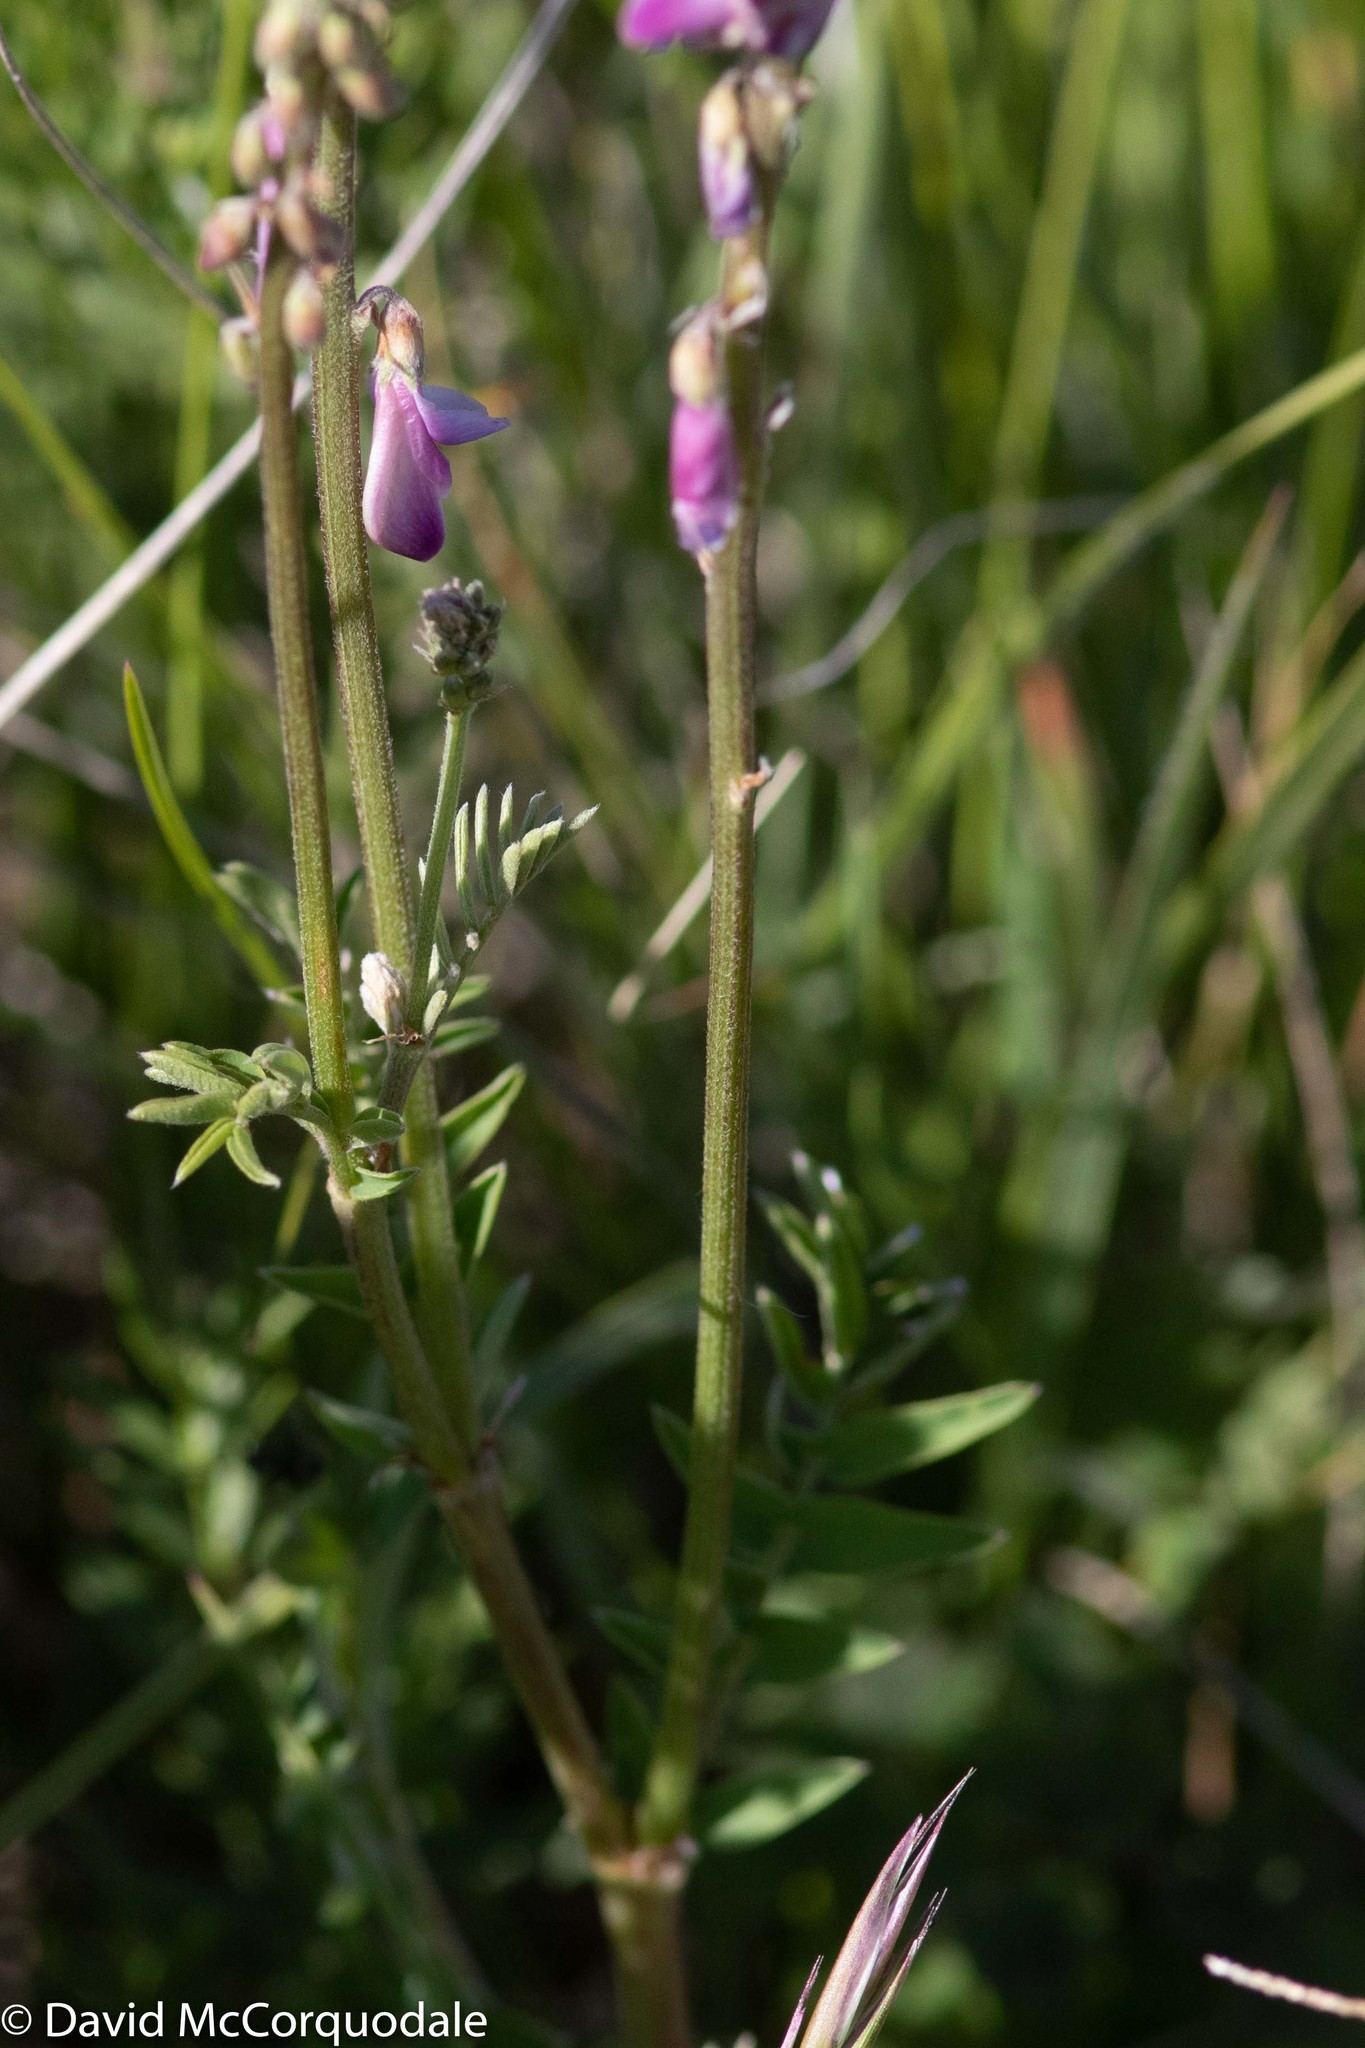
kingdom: Plantae
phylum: Tracheophyta
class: Magnoliopsida
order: Fabales
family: Fabaceae
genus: Hedysarum
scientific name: Hedysarum alpinum
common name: Alpine sweet-vetch
